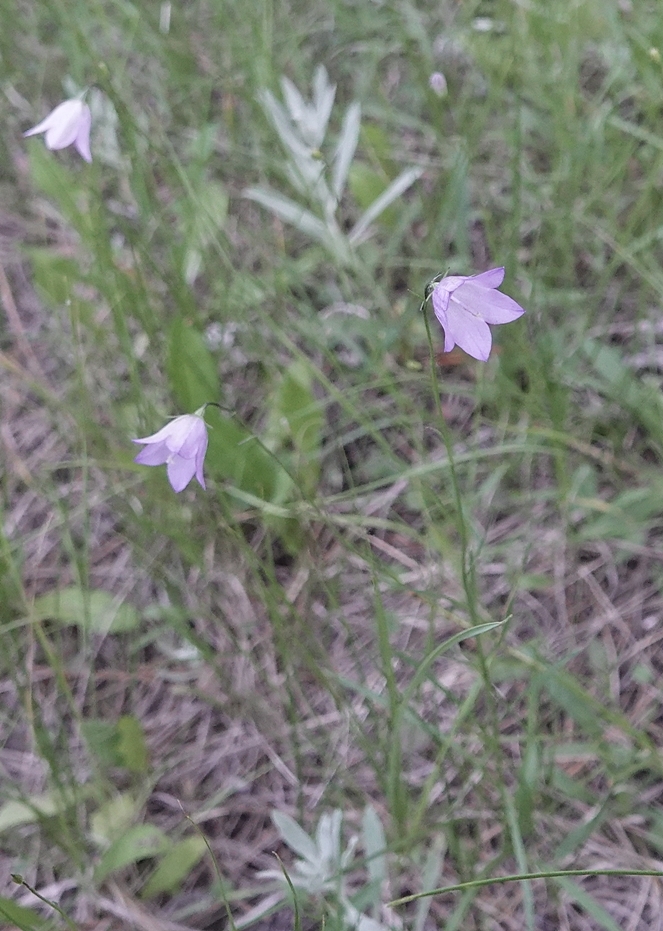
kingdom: Plantae
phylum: Tracheophyta
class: Magnoliopsida
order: Asterales
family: Campanulaceae
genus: Campanula
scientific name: Campanula petiolata
